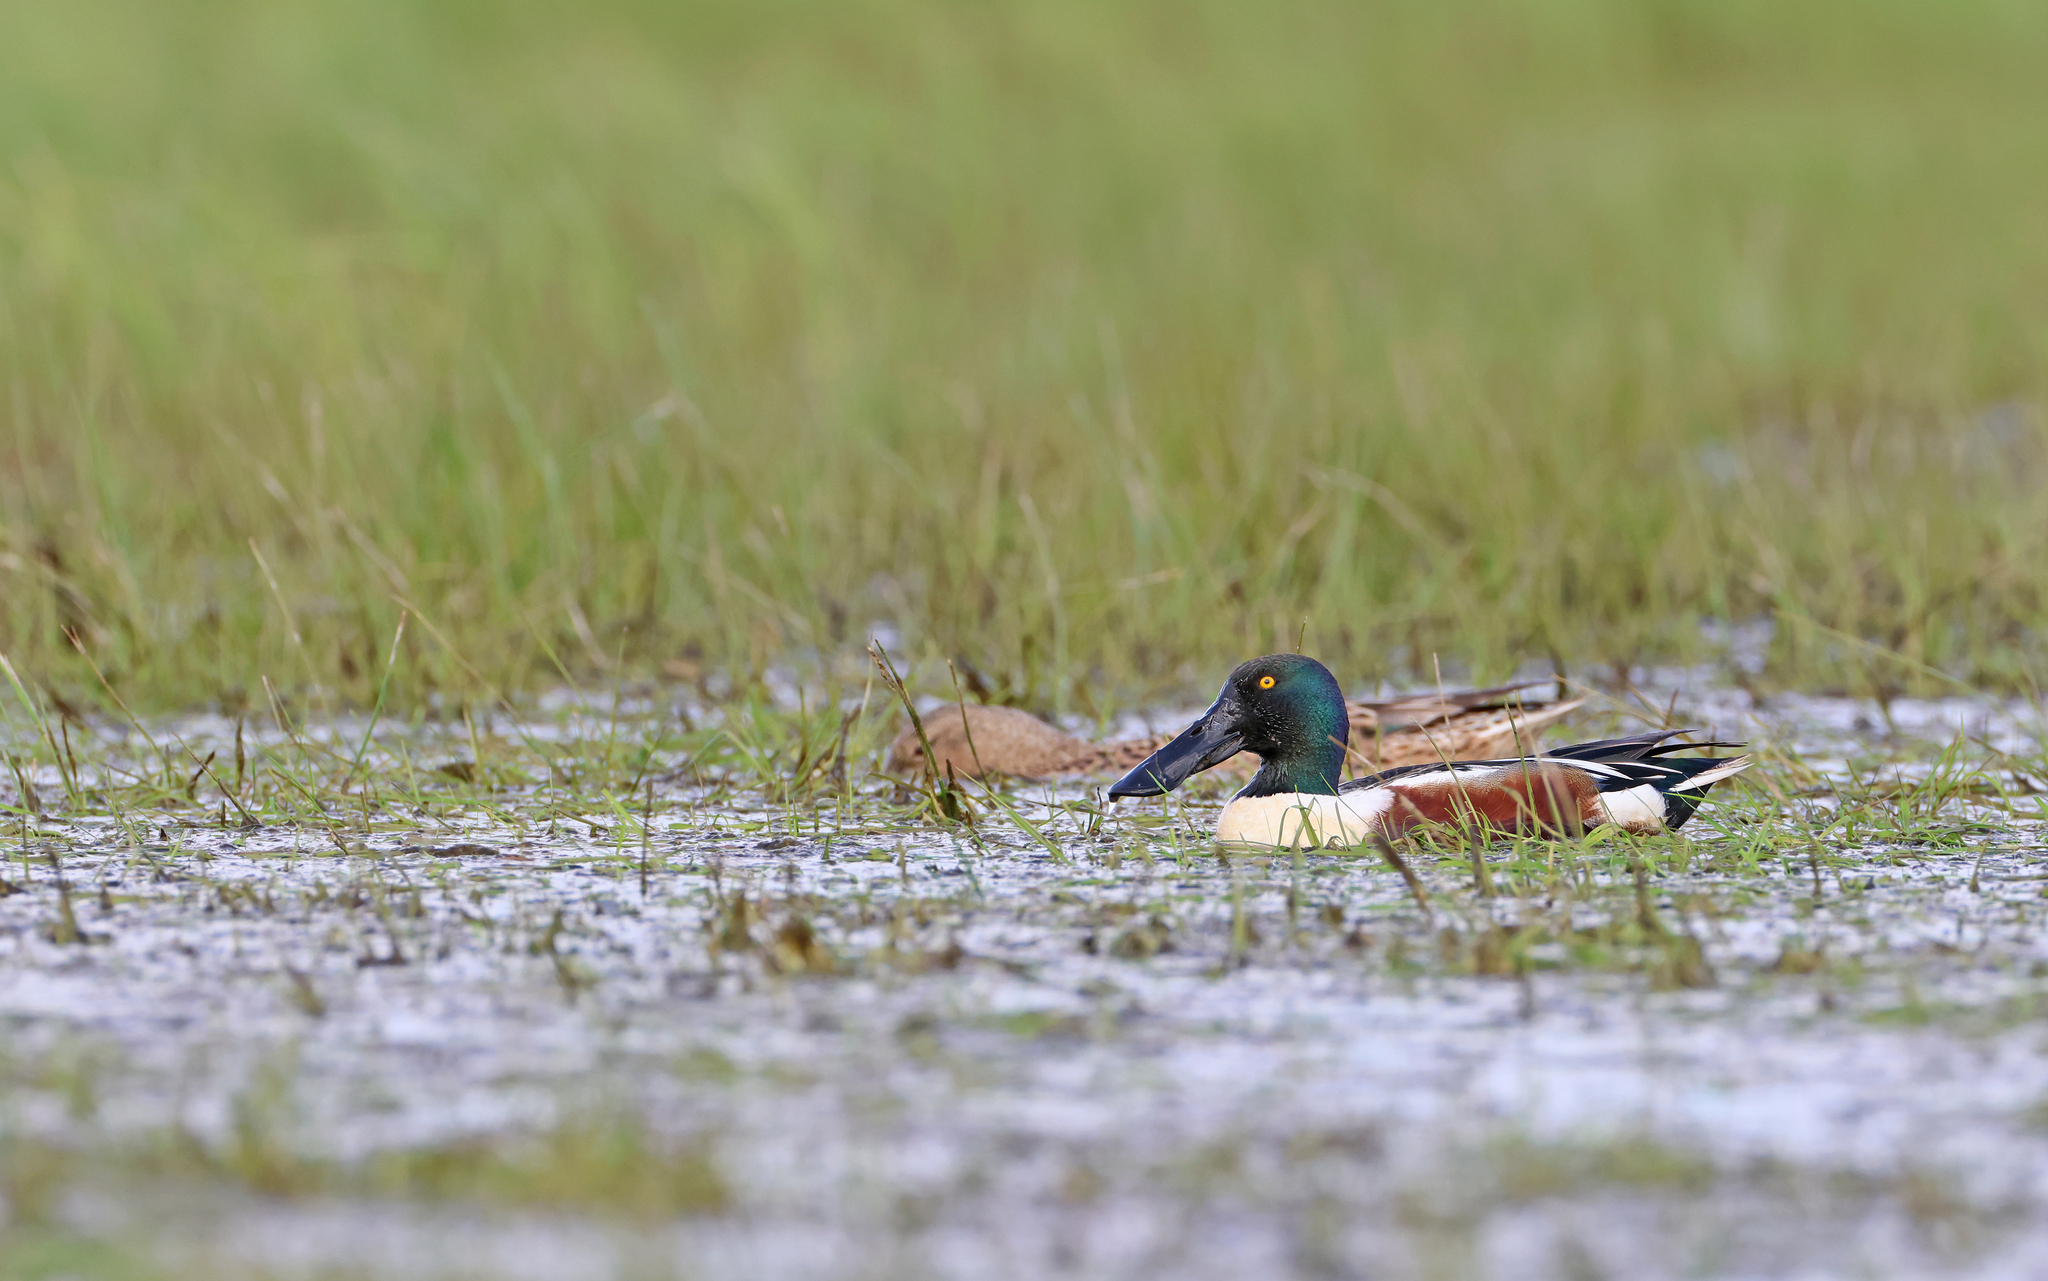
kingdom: Animalia
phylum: Chordata
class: Aves
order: Anseriformes
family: Anatidae
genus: Spatula
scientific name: Spatula clypeata
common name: Northern shoveler
